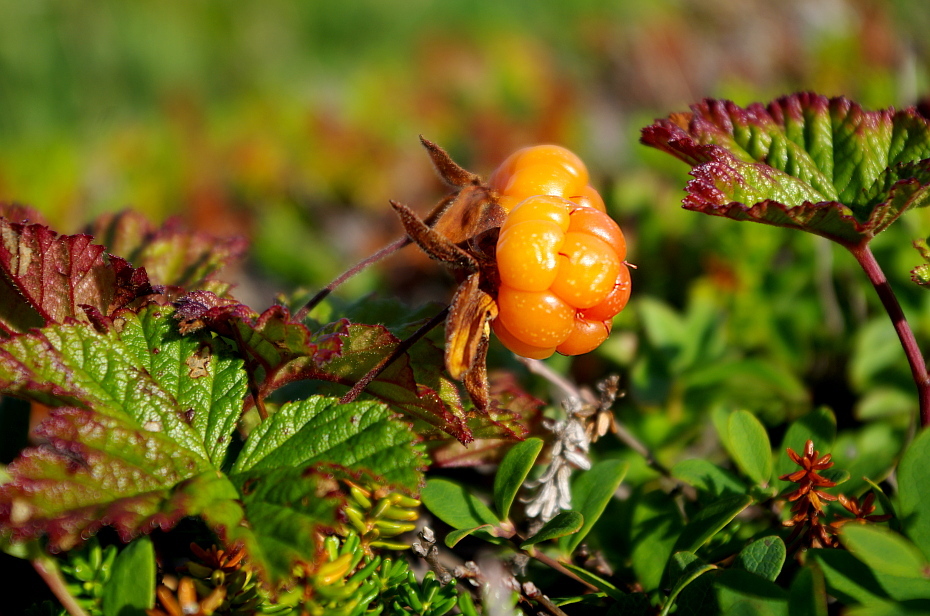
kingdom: Plantae
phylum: Tracheophyta
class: Magnoliopsida
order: Rosales
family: Rosaceae
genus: Rubus
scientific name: Rubus chamaemorus
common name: Cloudberry
